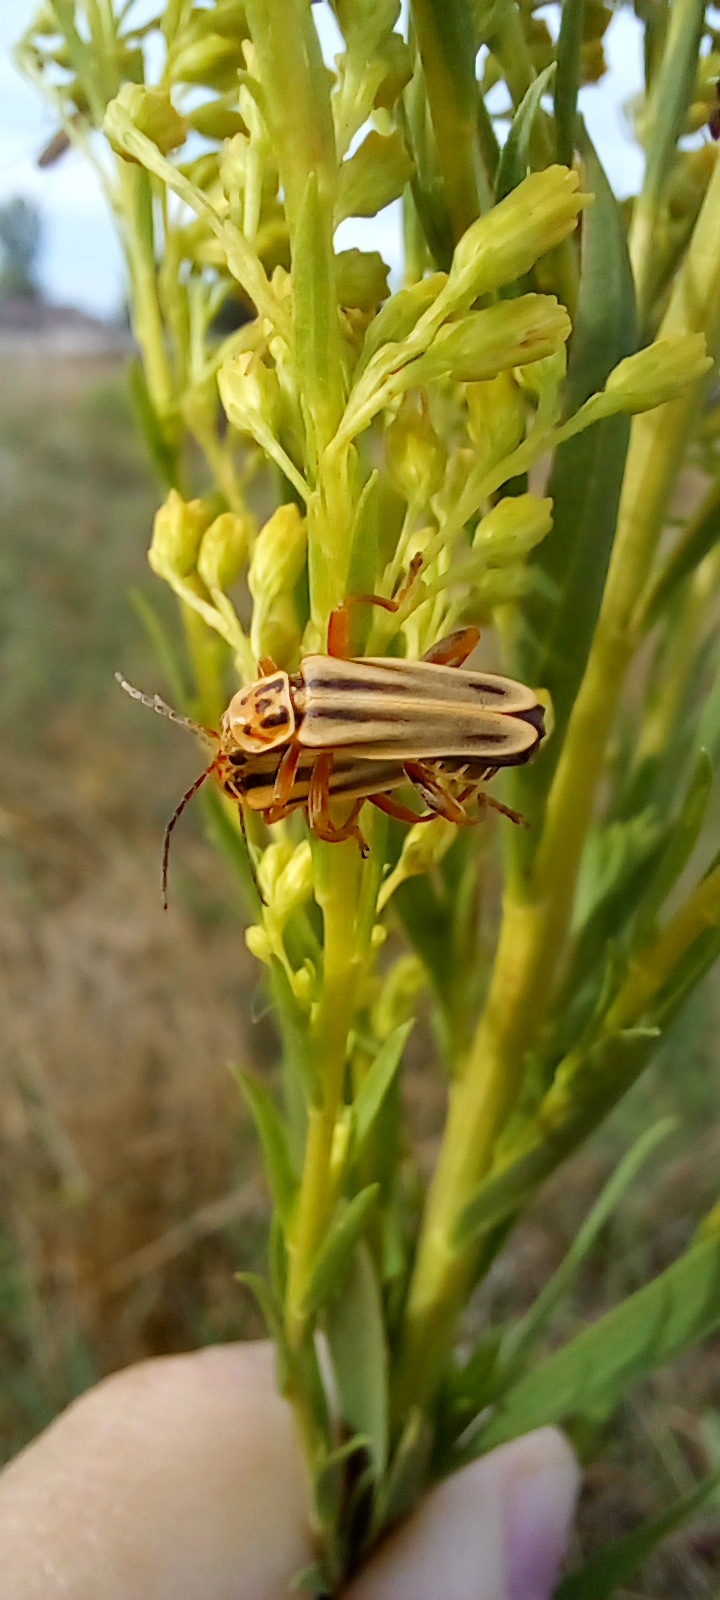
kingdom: Animalia
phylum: Arthropoda
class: Insecta
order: Coleoptera
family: Cantharidae
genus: Chauliognathus
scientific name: Chauliognathus
